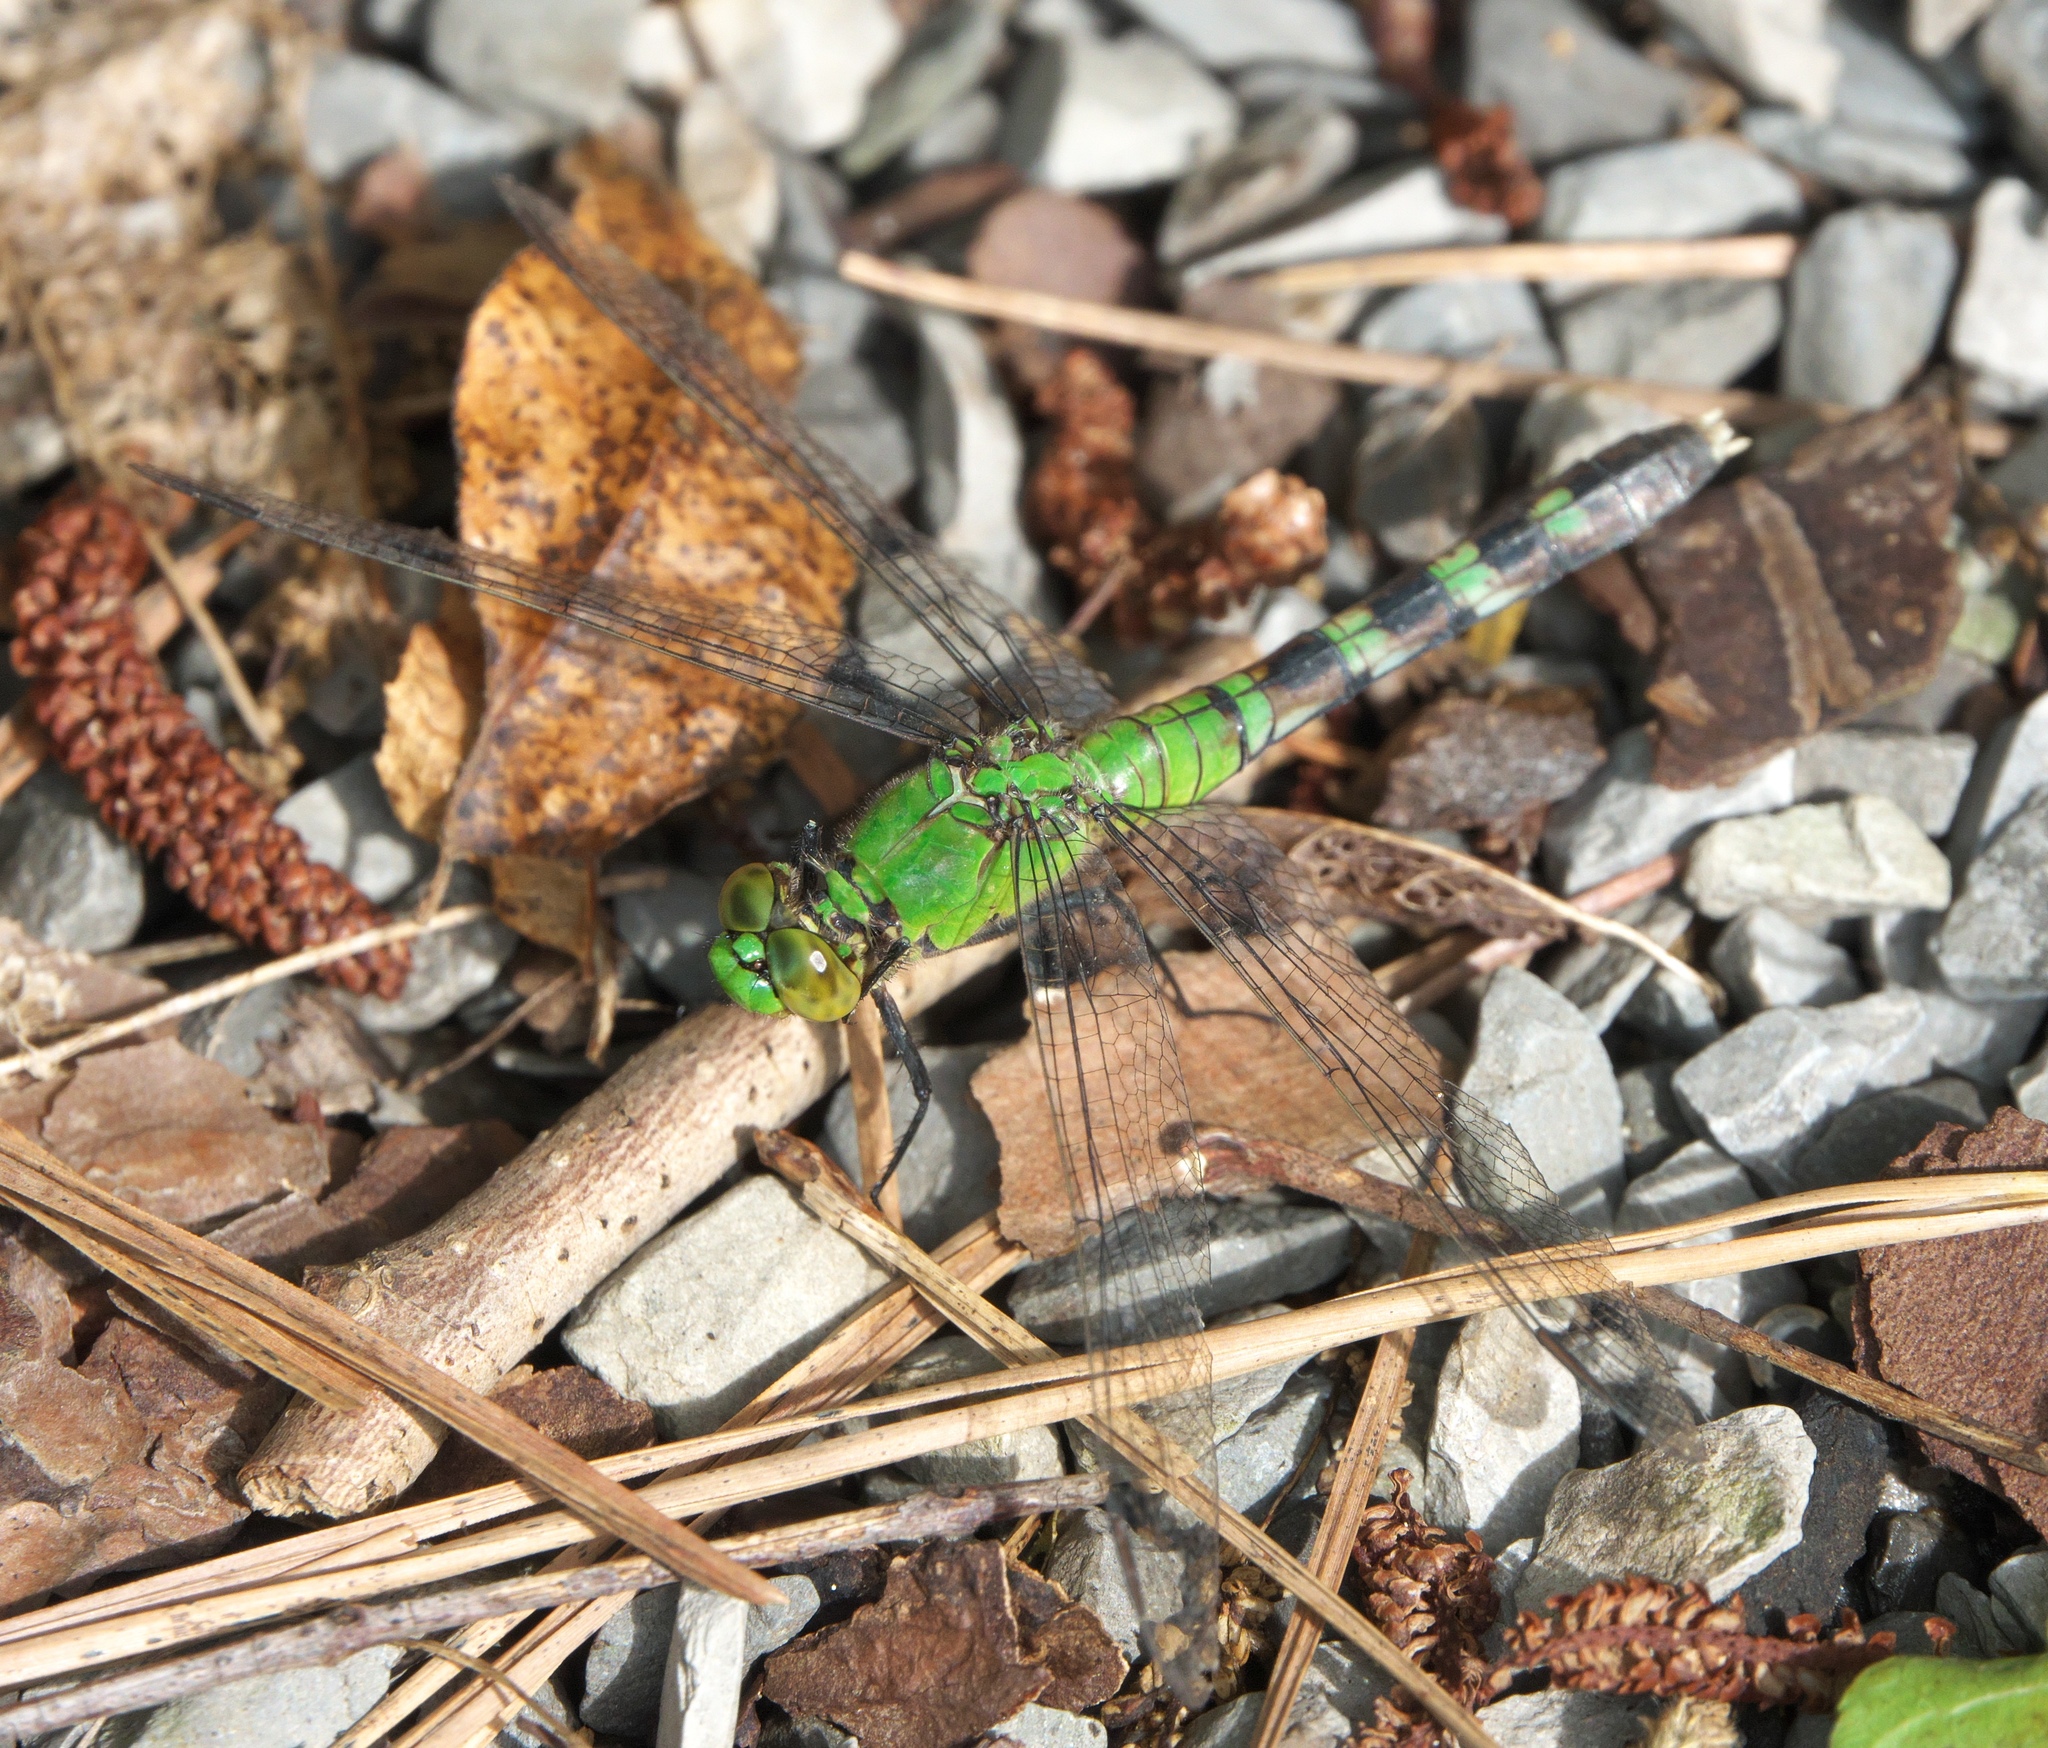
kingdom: Animalia
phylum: Arthropoda
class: Insecta
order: Odonata
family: Libellulidae
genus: Erythemis
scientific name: Erythemis simplicicollis
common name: Eastern pondhawk
